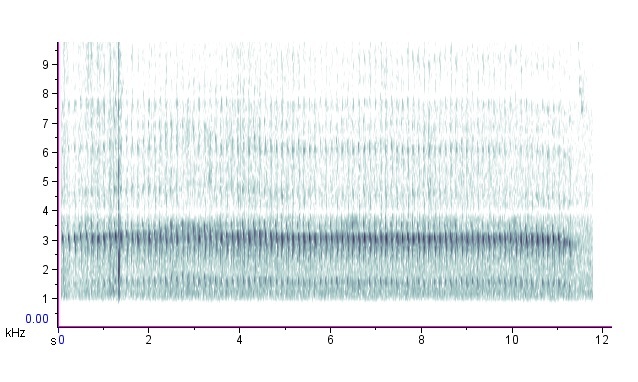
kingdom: Animalia
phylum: Chordata
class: Aves
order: Piciformes
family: Picidae
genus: Colaptes
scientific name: Colaptes auratus
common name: Northern flicker
